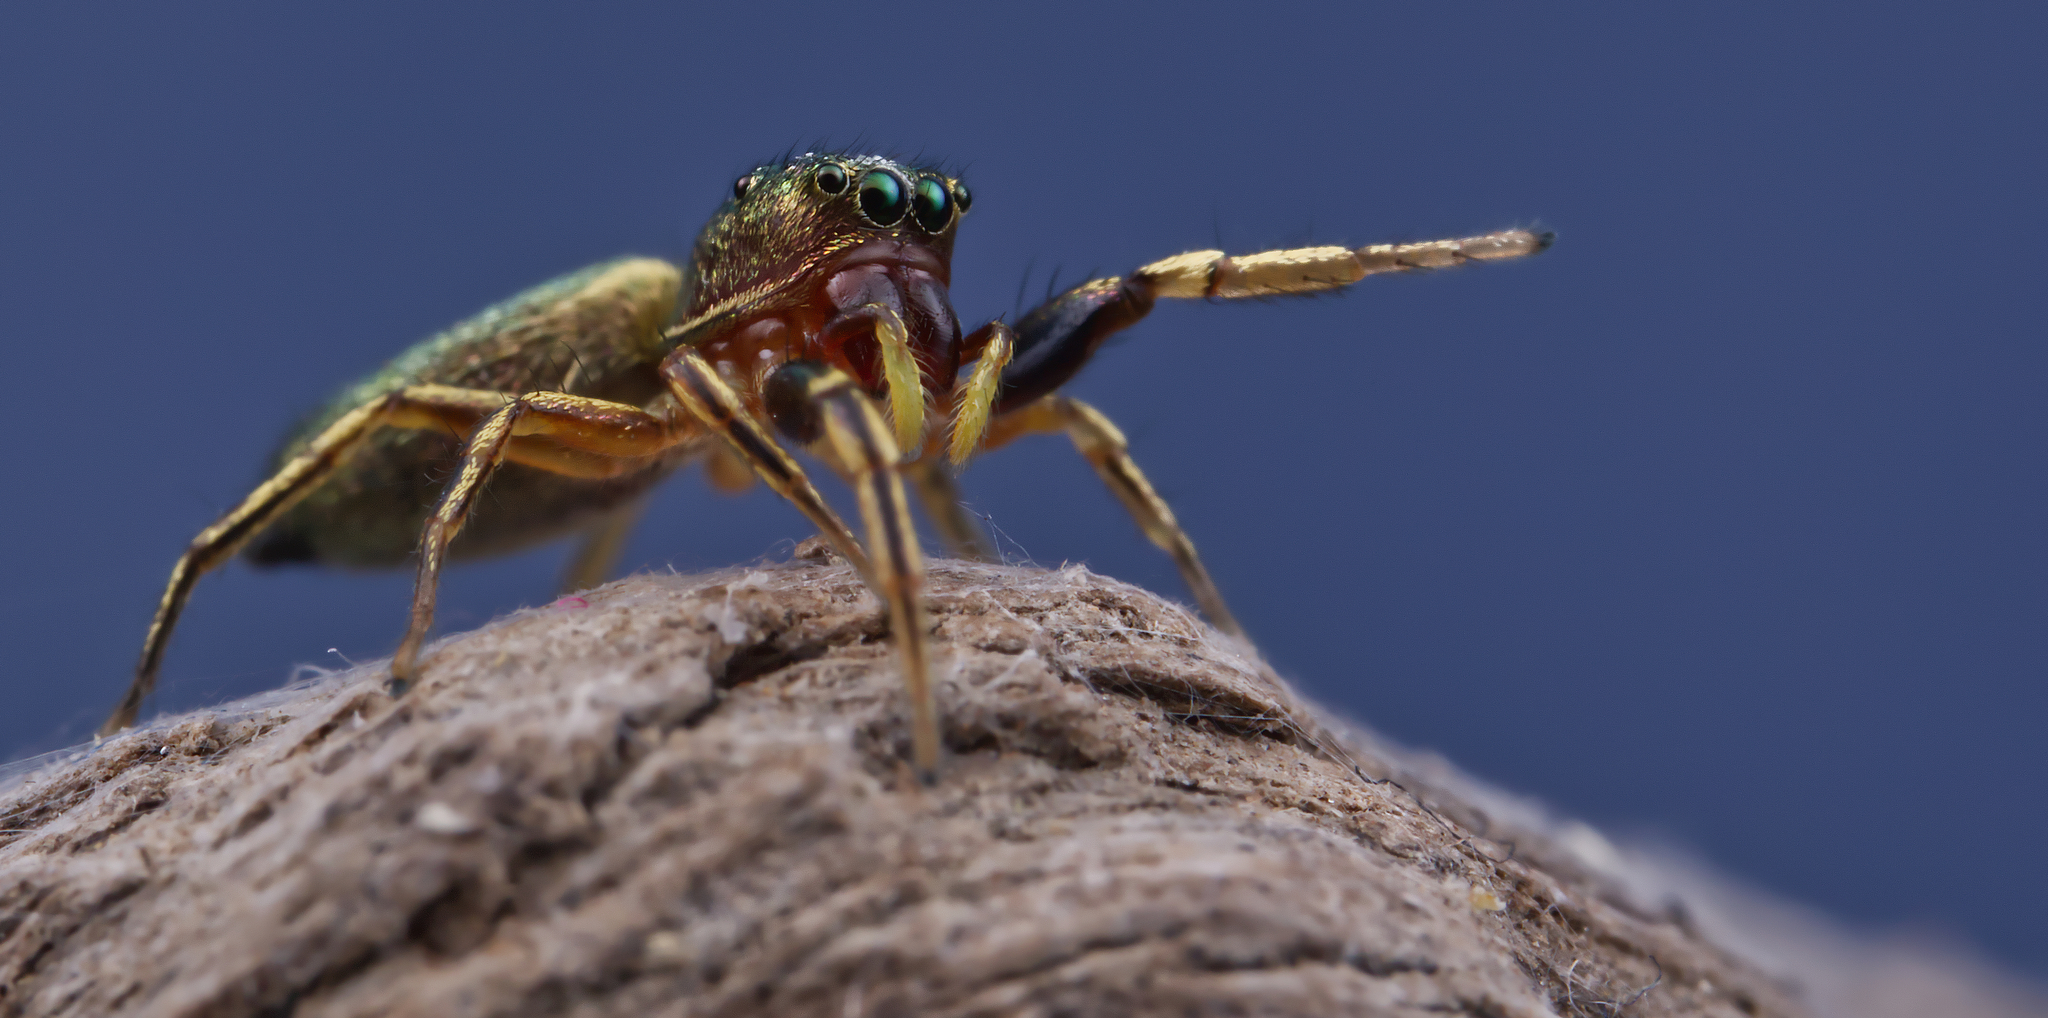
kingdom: Animalia
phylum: Arthropoda
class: Arachnida
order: Araneae
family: Salticidae
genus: Tutelina
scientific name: Tutelina elegans
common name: Thin-spined jumping spider
